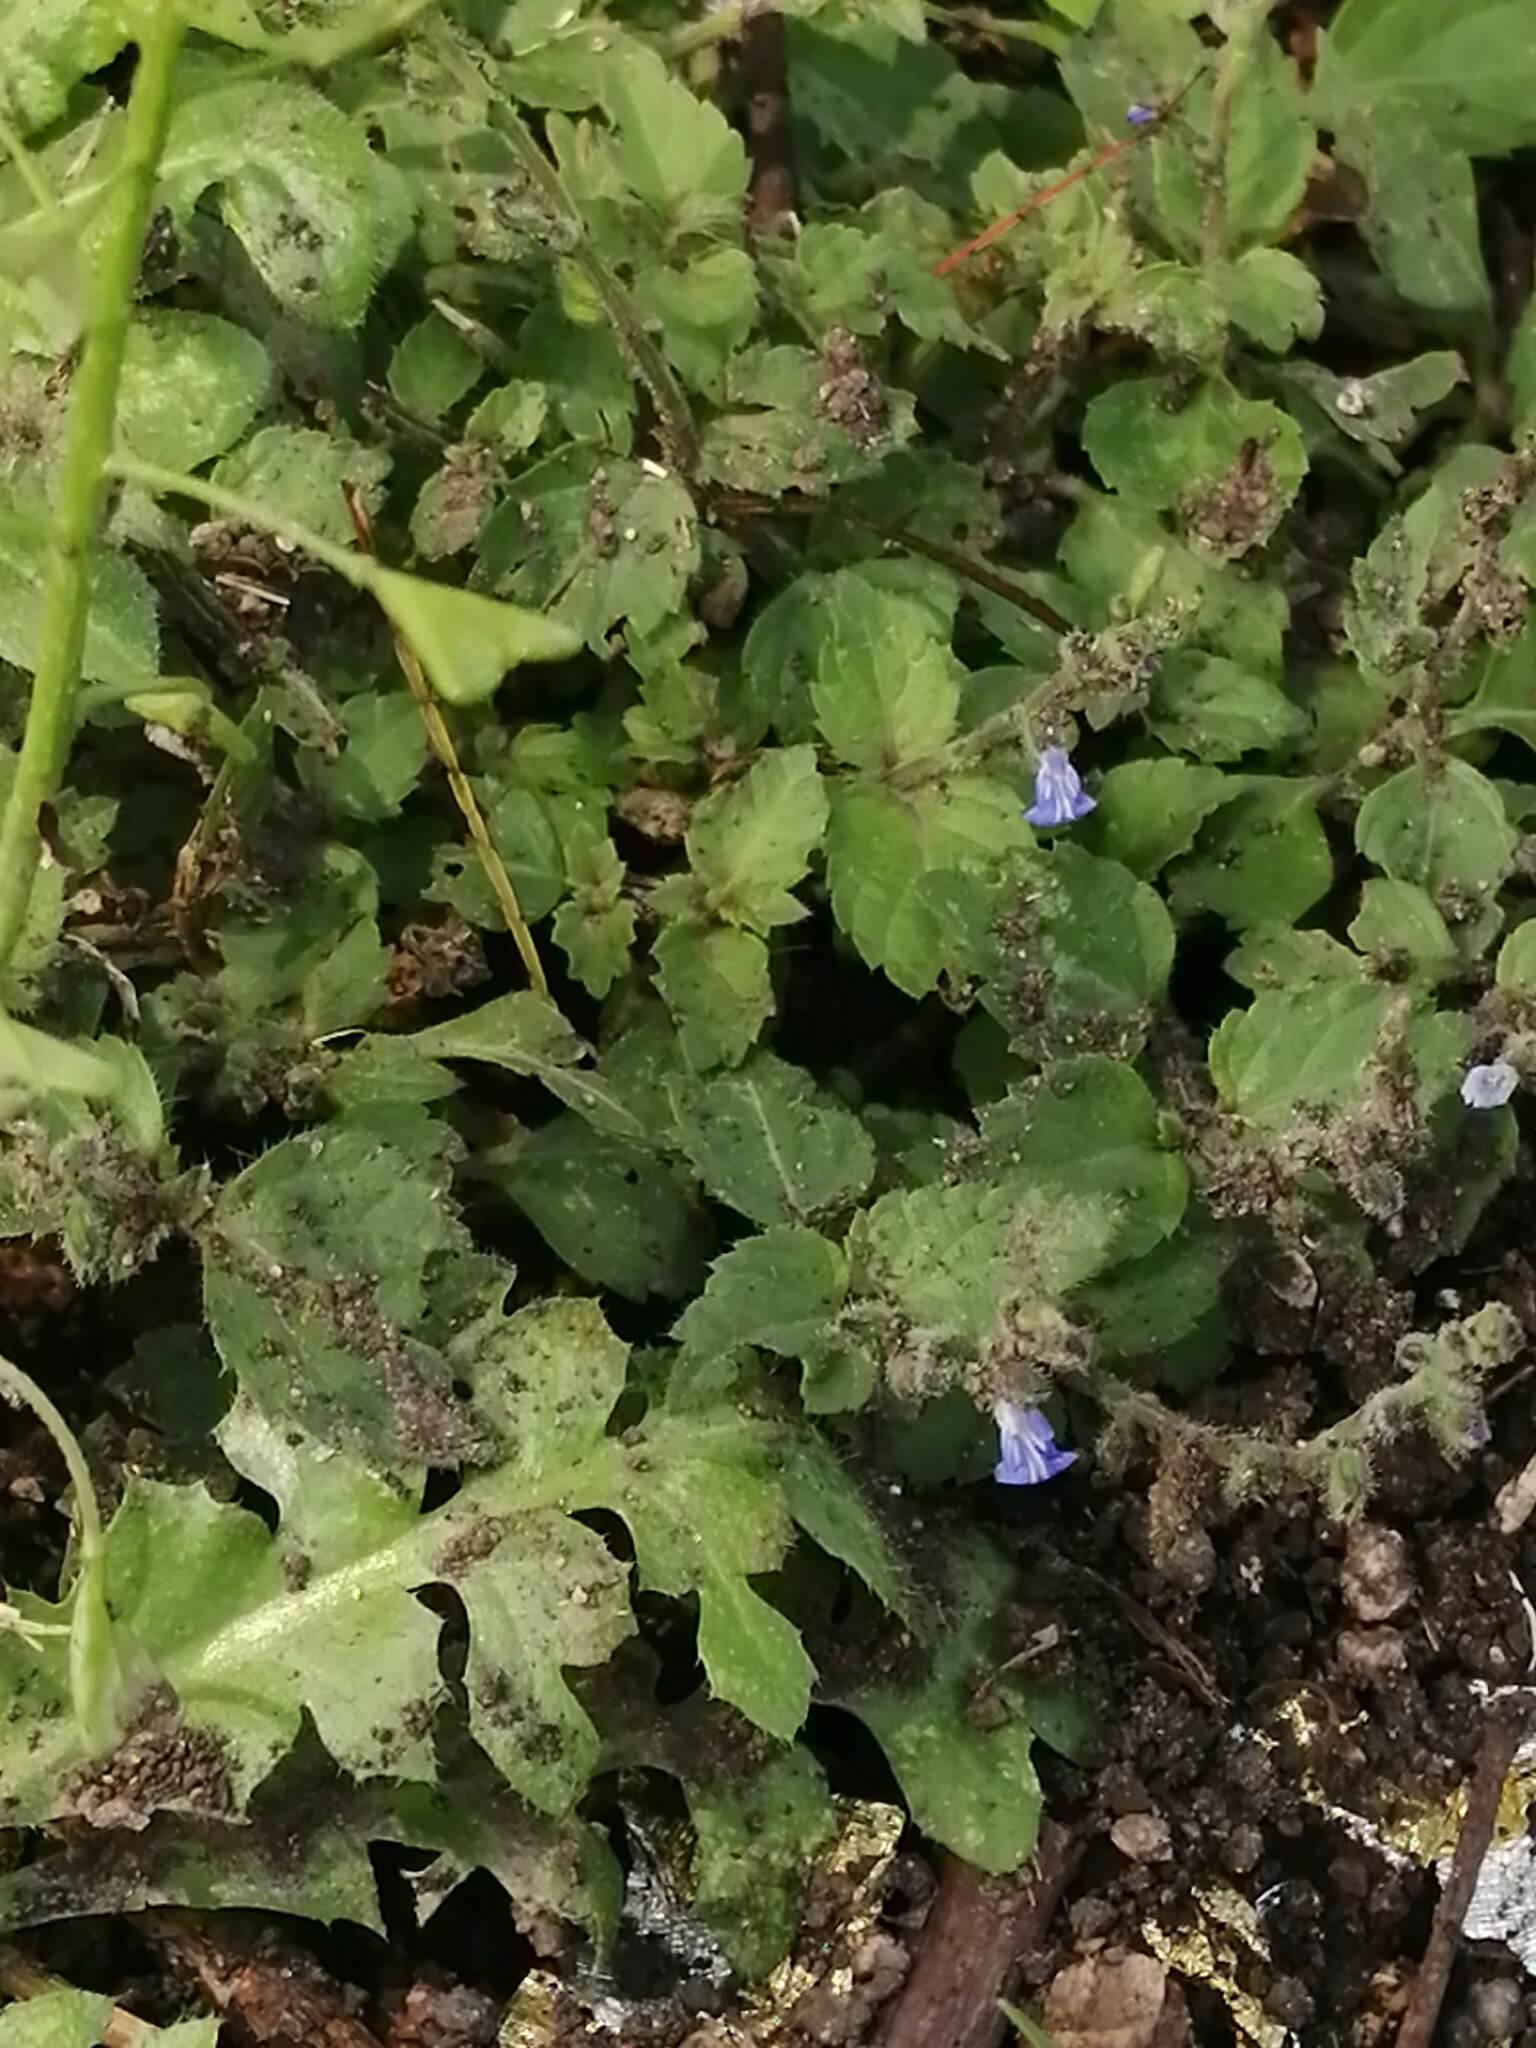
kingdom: Plantae
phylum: Tracheophyta
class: Magnoliopsida
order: Lamiales
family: Lamiaceae
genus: Salvia
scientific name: Salvia misella
